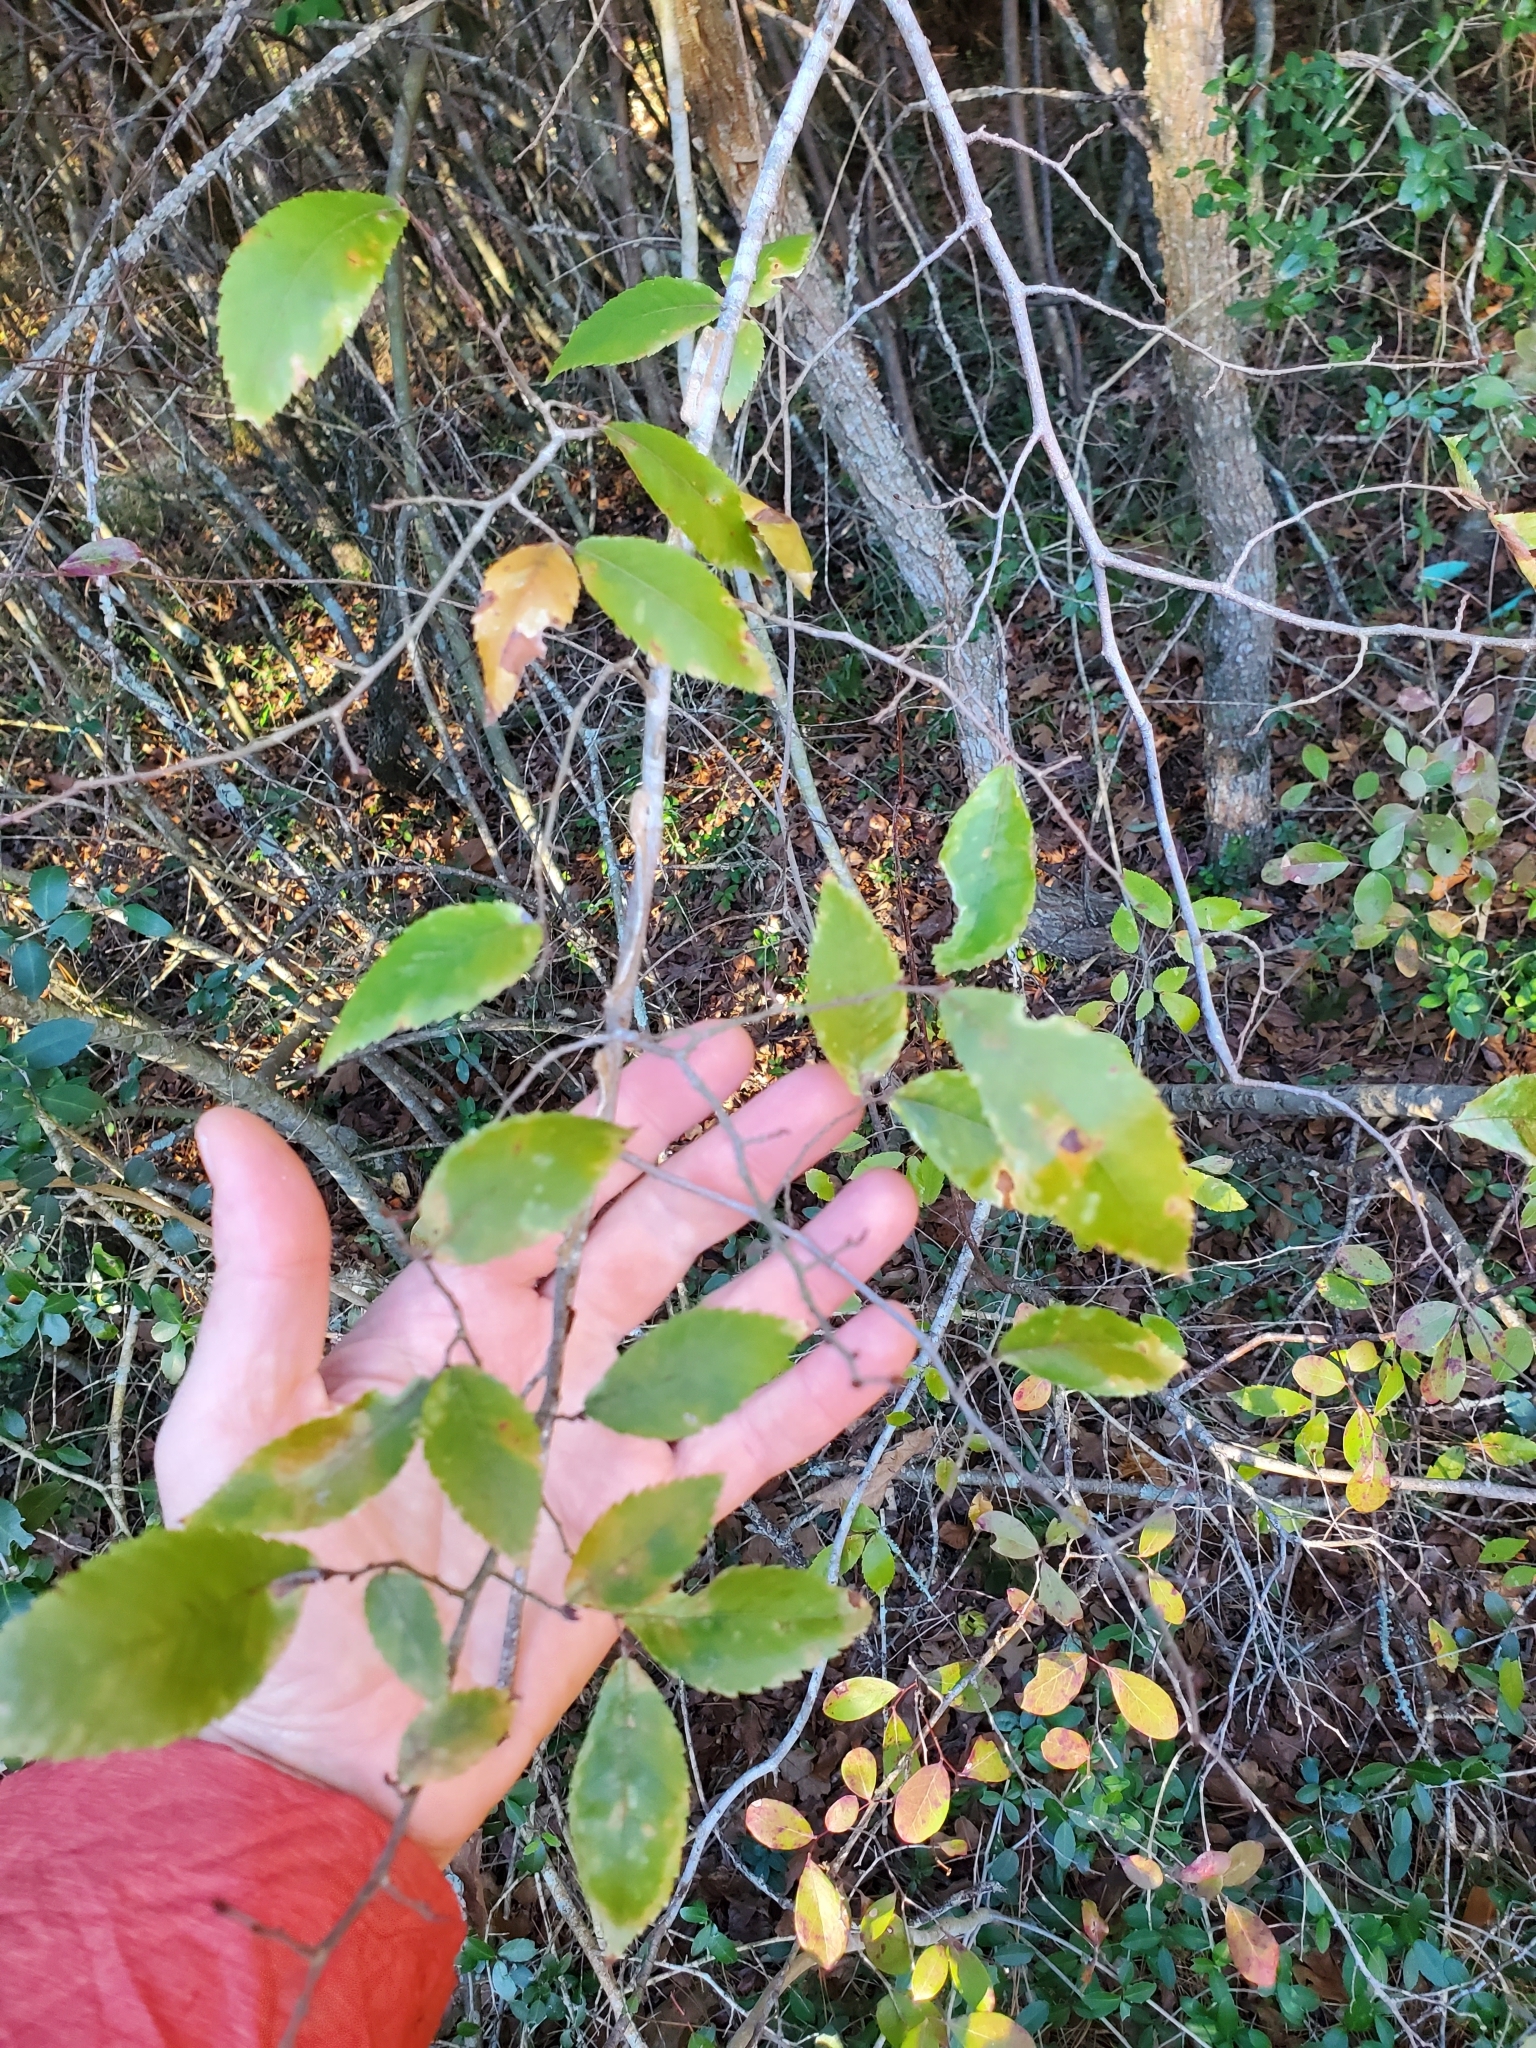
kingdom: Plantae
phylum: Tracheophyta
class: Magnoliopsida
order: Rosales
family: Ulmaceae
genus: Ulmus
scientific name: Ulmus alata
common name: Winged elm
